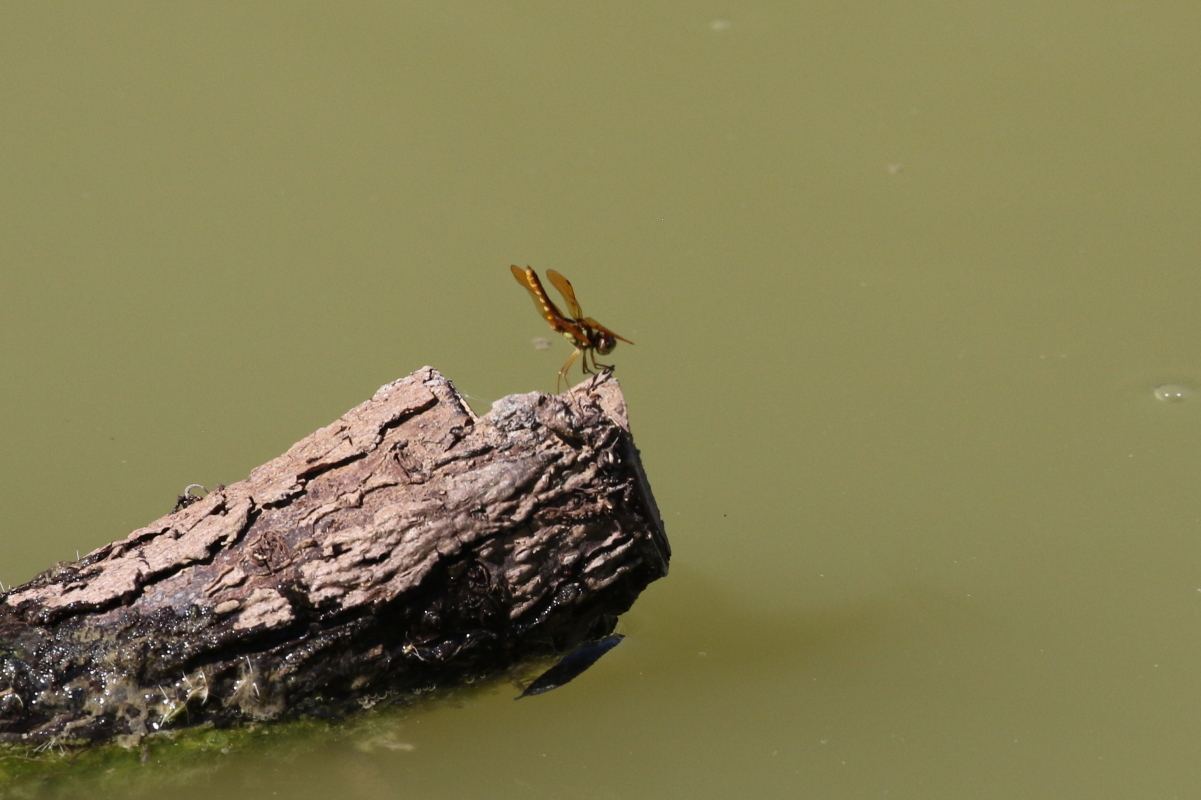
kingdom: Animalia
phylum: Arthropoda
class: Insecta
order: Odonata
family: Libellulidae
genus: Perithemis
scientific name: Perithemis tenera
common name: Eastern amberwing
